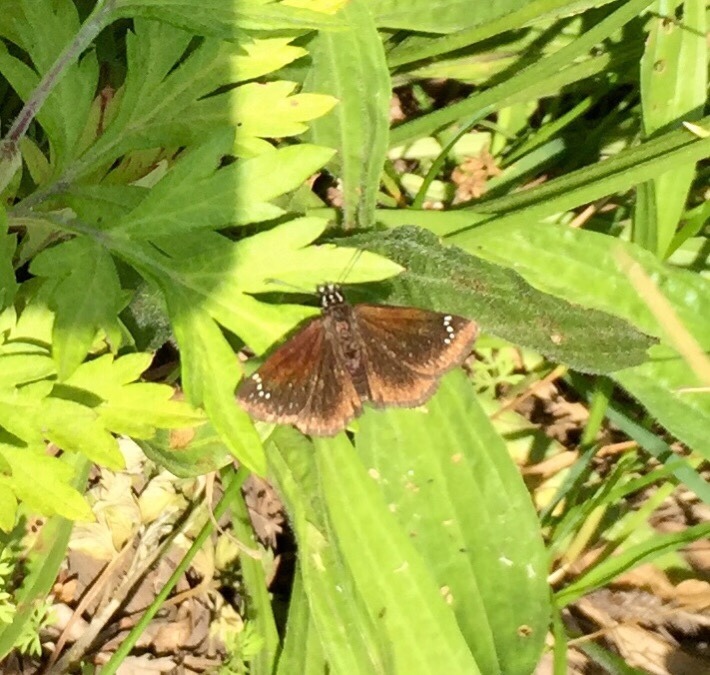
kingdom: Animalia
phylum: Arthropoda
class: Insecta
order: Lepidoptera
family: Hesperiidae
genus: Pholisora
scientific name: Pholisora catullus
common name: Common sootywing
